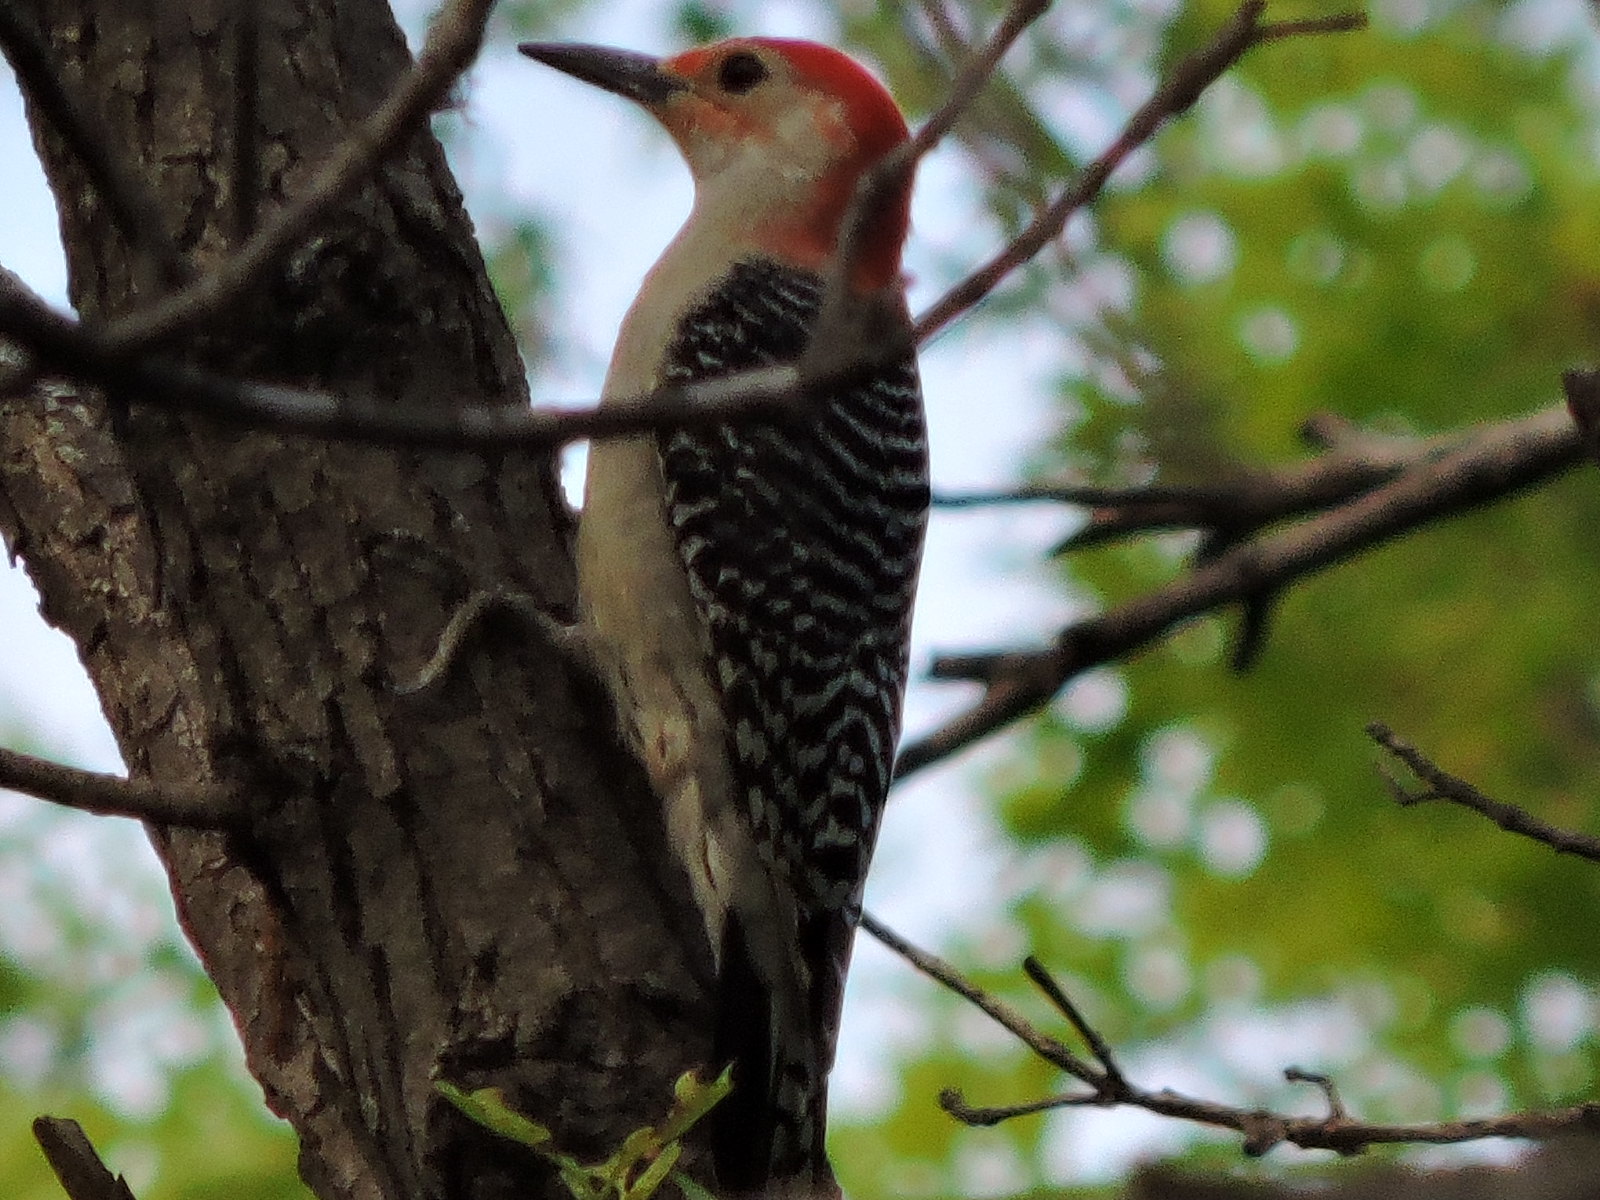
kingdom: Animalia
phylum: Chordata
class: Aves
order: Piciformes
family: Picidae
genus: Melanerpes
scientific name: Melanerpes carolinus
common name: Red-bellied woodpecker
